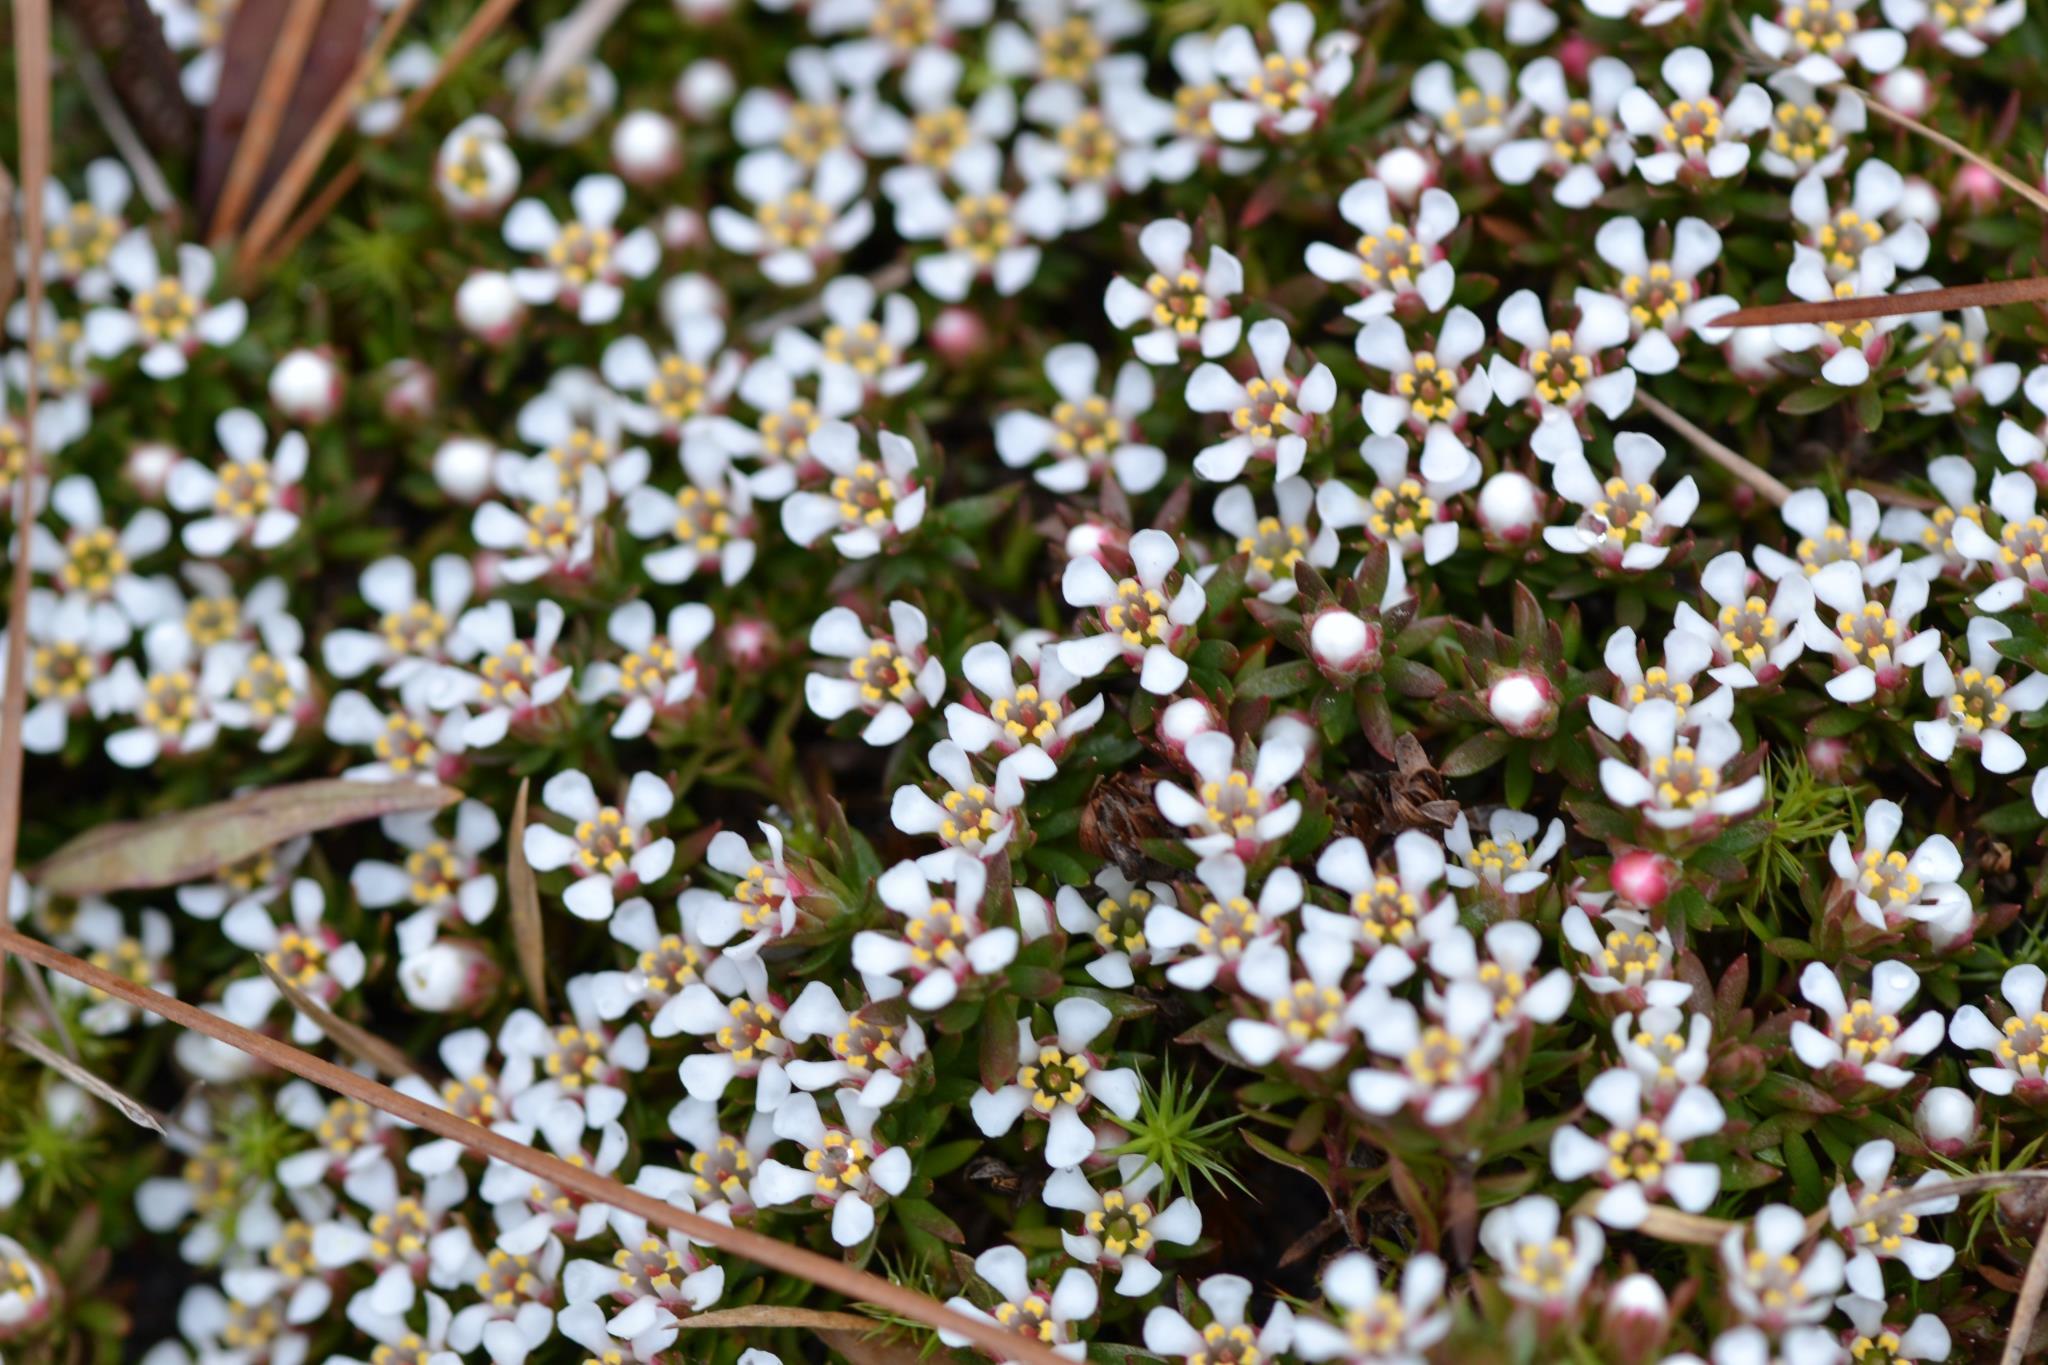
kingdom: Plantae
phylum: Tracheophyta
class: Magnoliopsida
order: Ericales
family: Diapensiaceae
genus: Pyxidanthera
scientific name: Pyxidanthera barbulata
